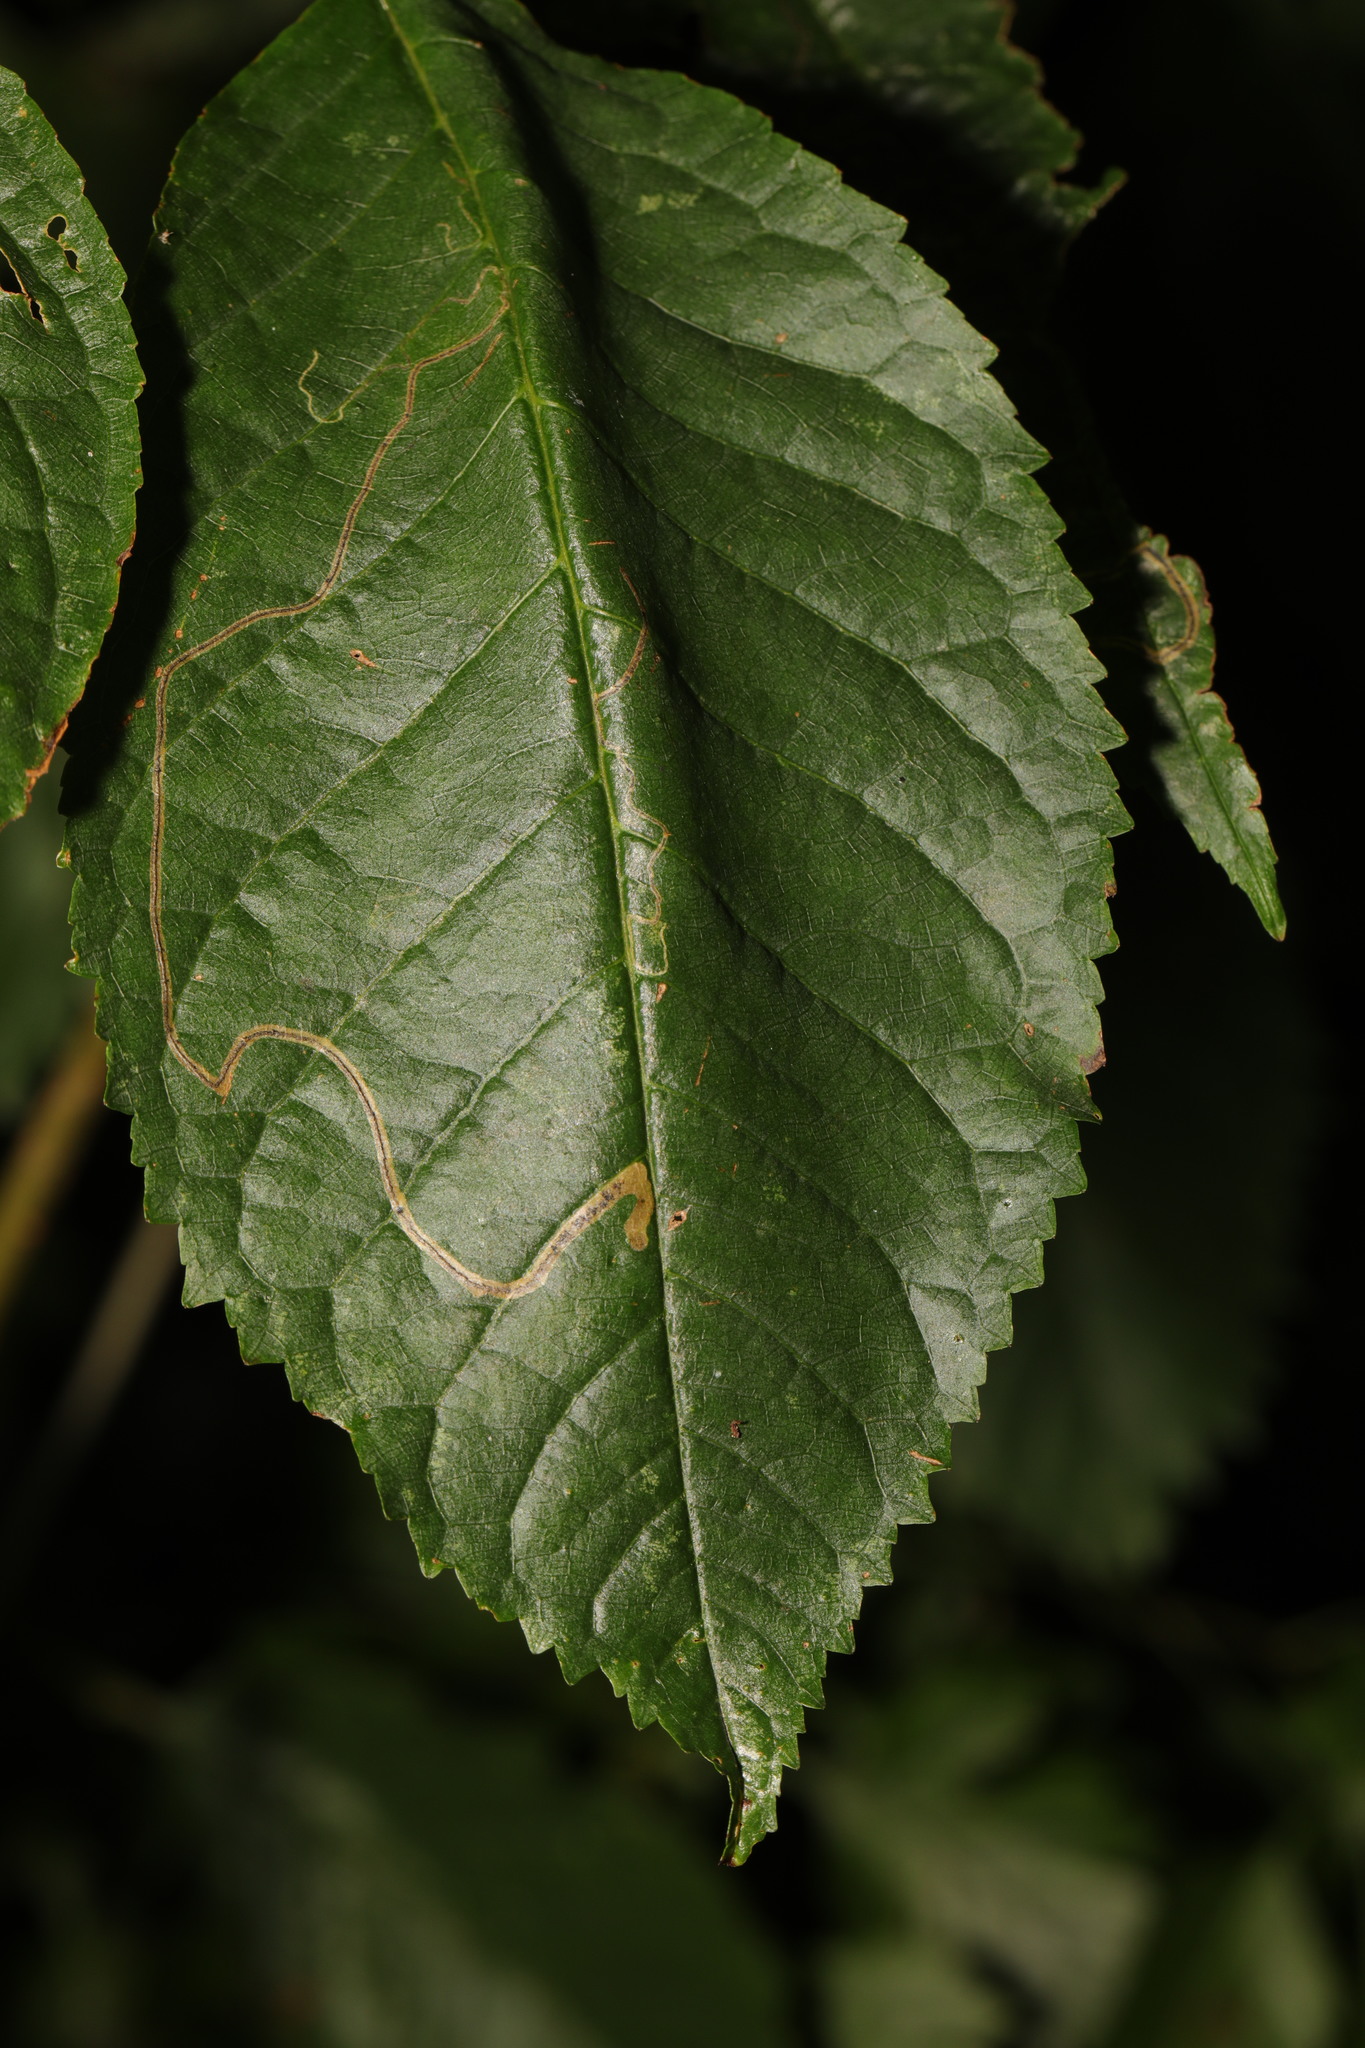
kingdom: Animalia
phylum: Arthropoda
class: Insecta
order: Lepidoptera
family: Lyonetiidae
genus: Lyonetia
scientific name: Lyonetia clerkella
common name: Apple leaf miner
